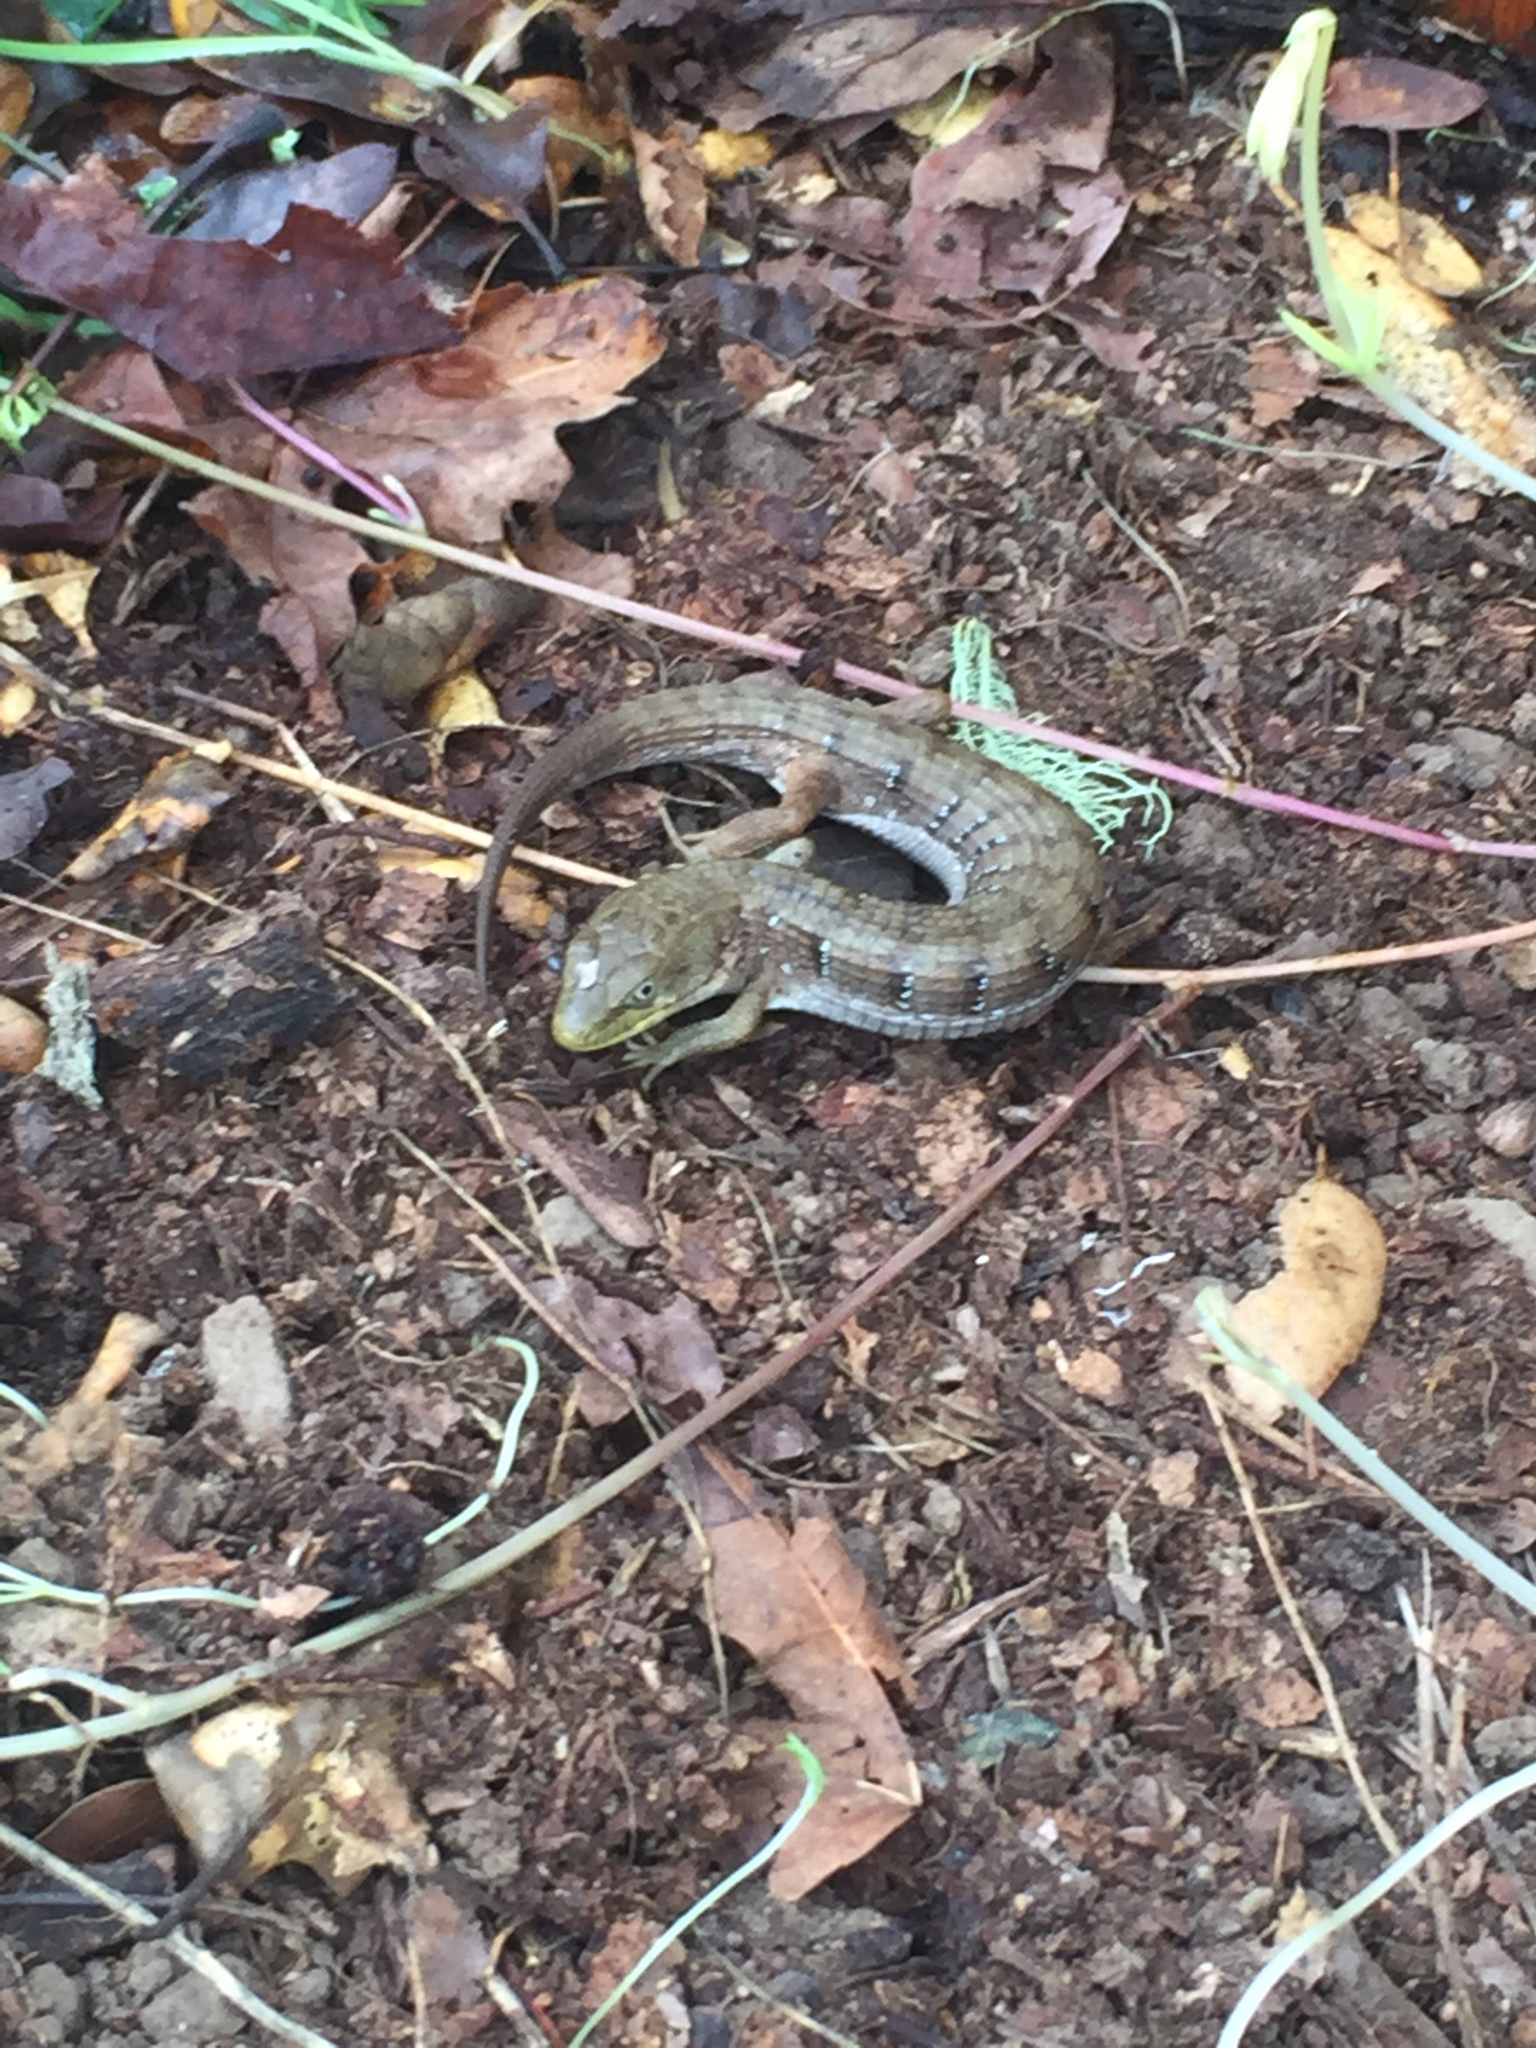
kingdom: Animalia
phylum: Chordata
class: Squamata
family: Anguidae
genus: Elgaria
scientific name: Elgaria multicarinata
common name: Southern alligator lizard
